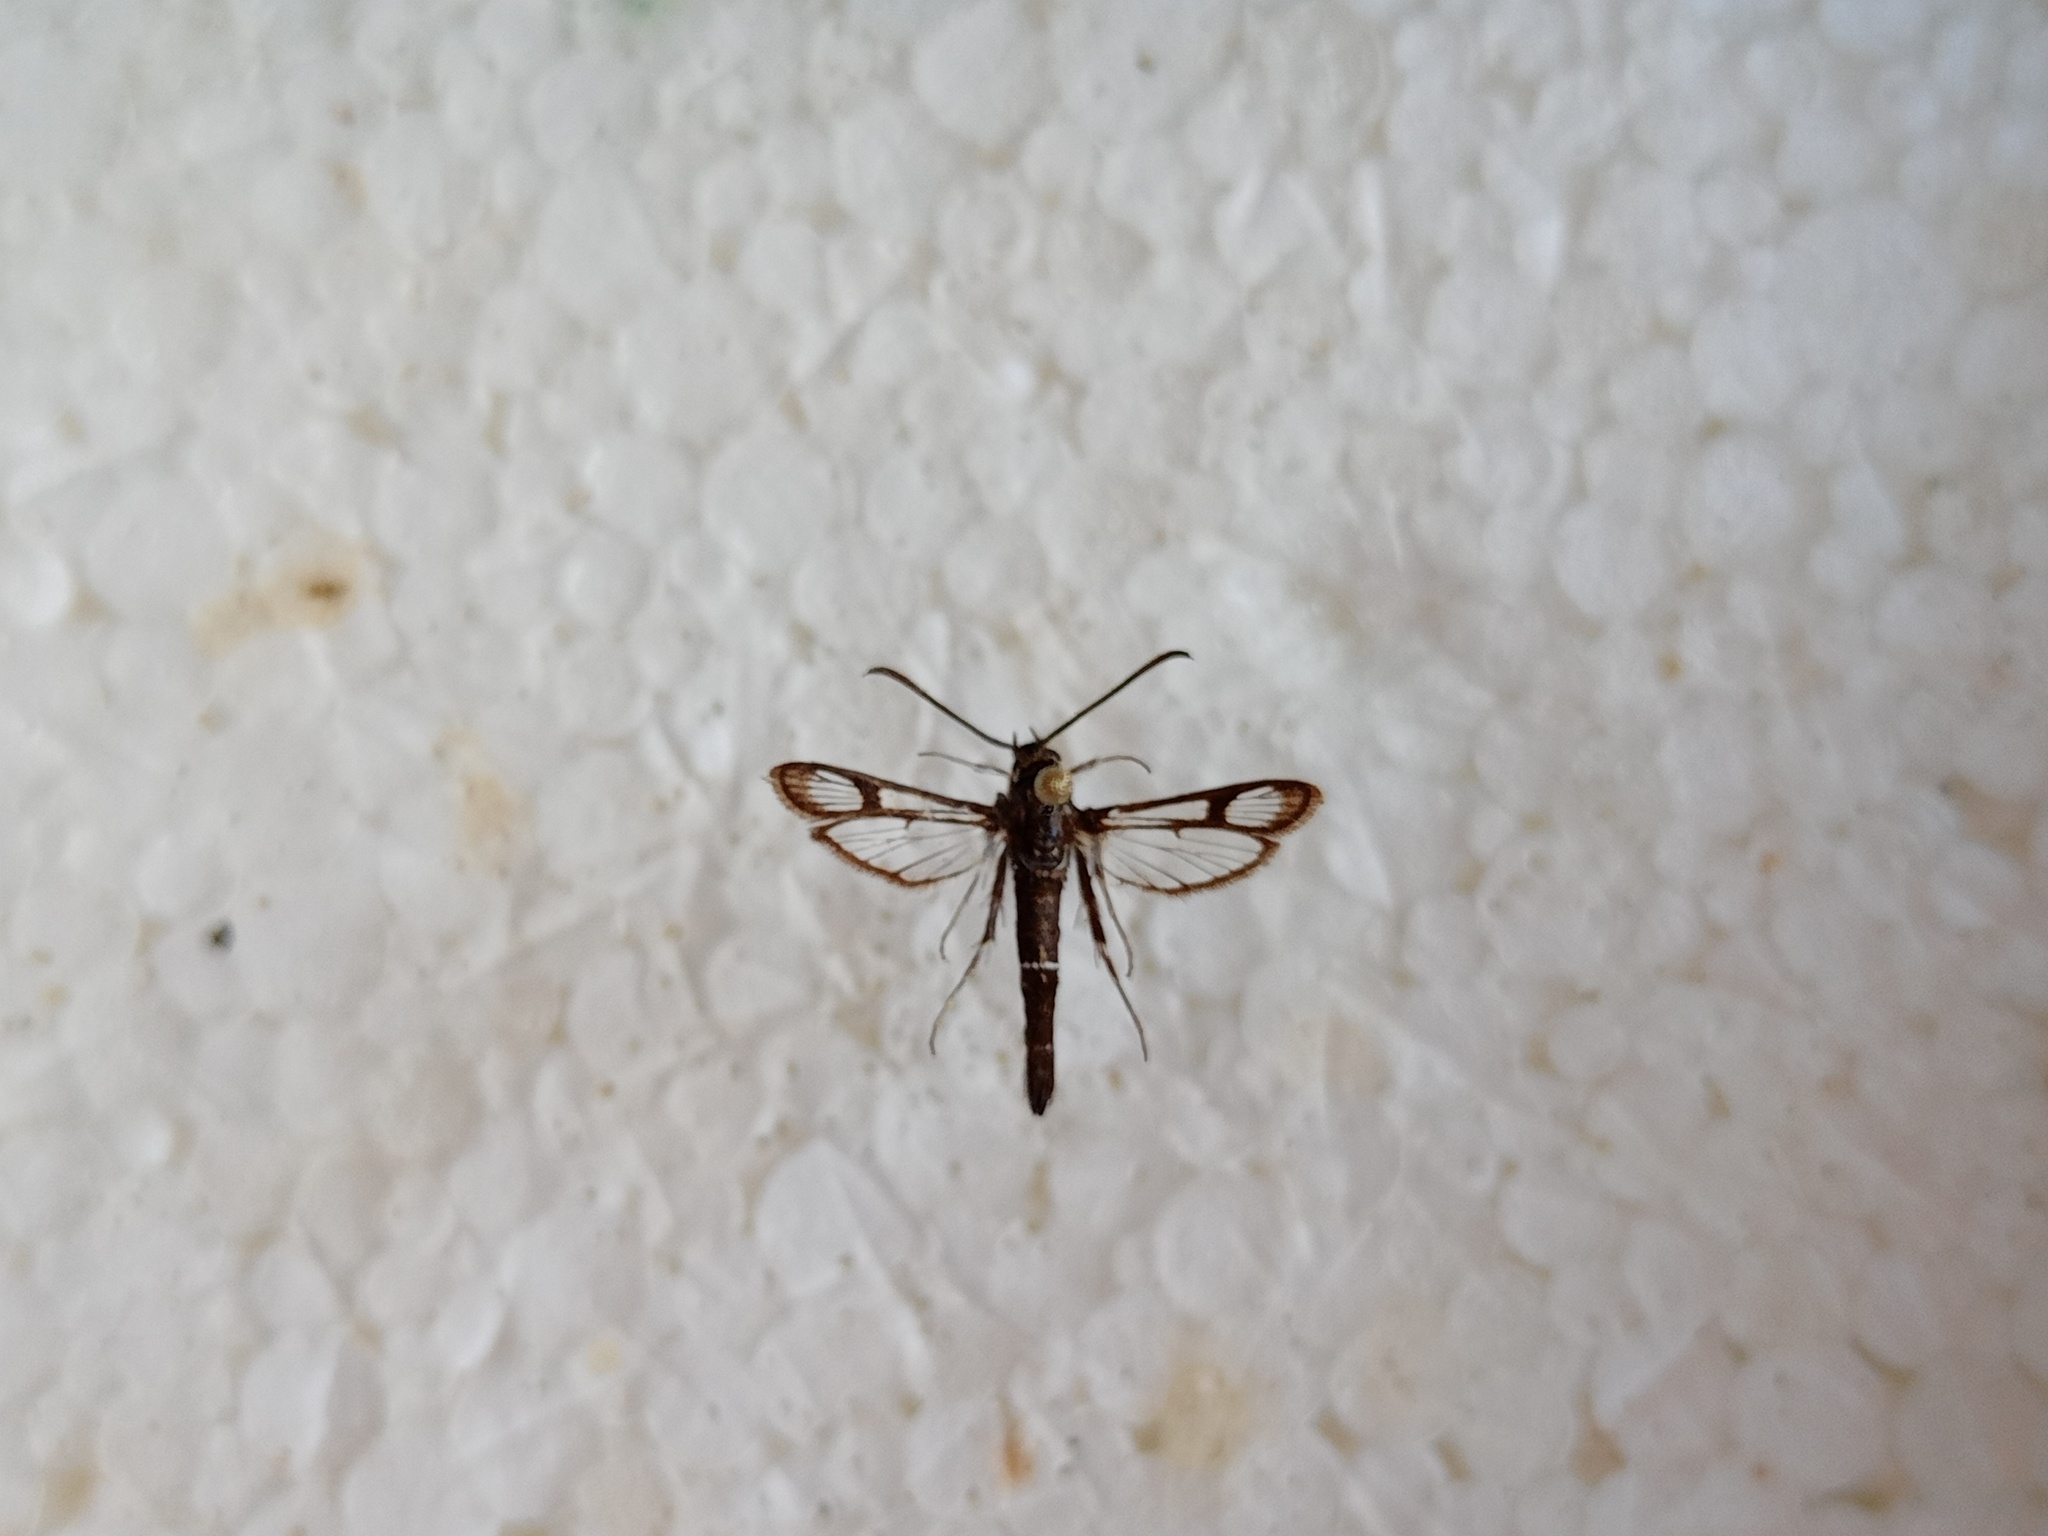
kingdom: Animalia
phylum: Arthropoda
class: Insecta
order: Lepidoptera
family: Sesiidae
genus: Pyropteron
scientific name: Pyropteron leucomelaena
